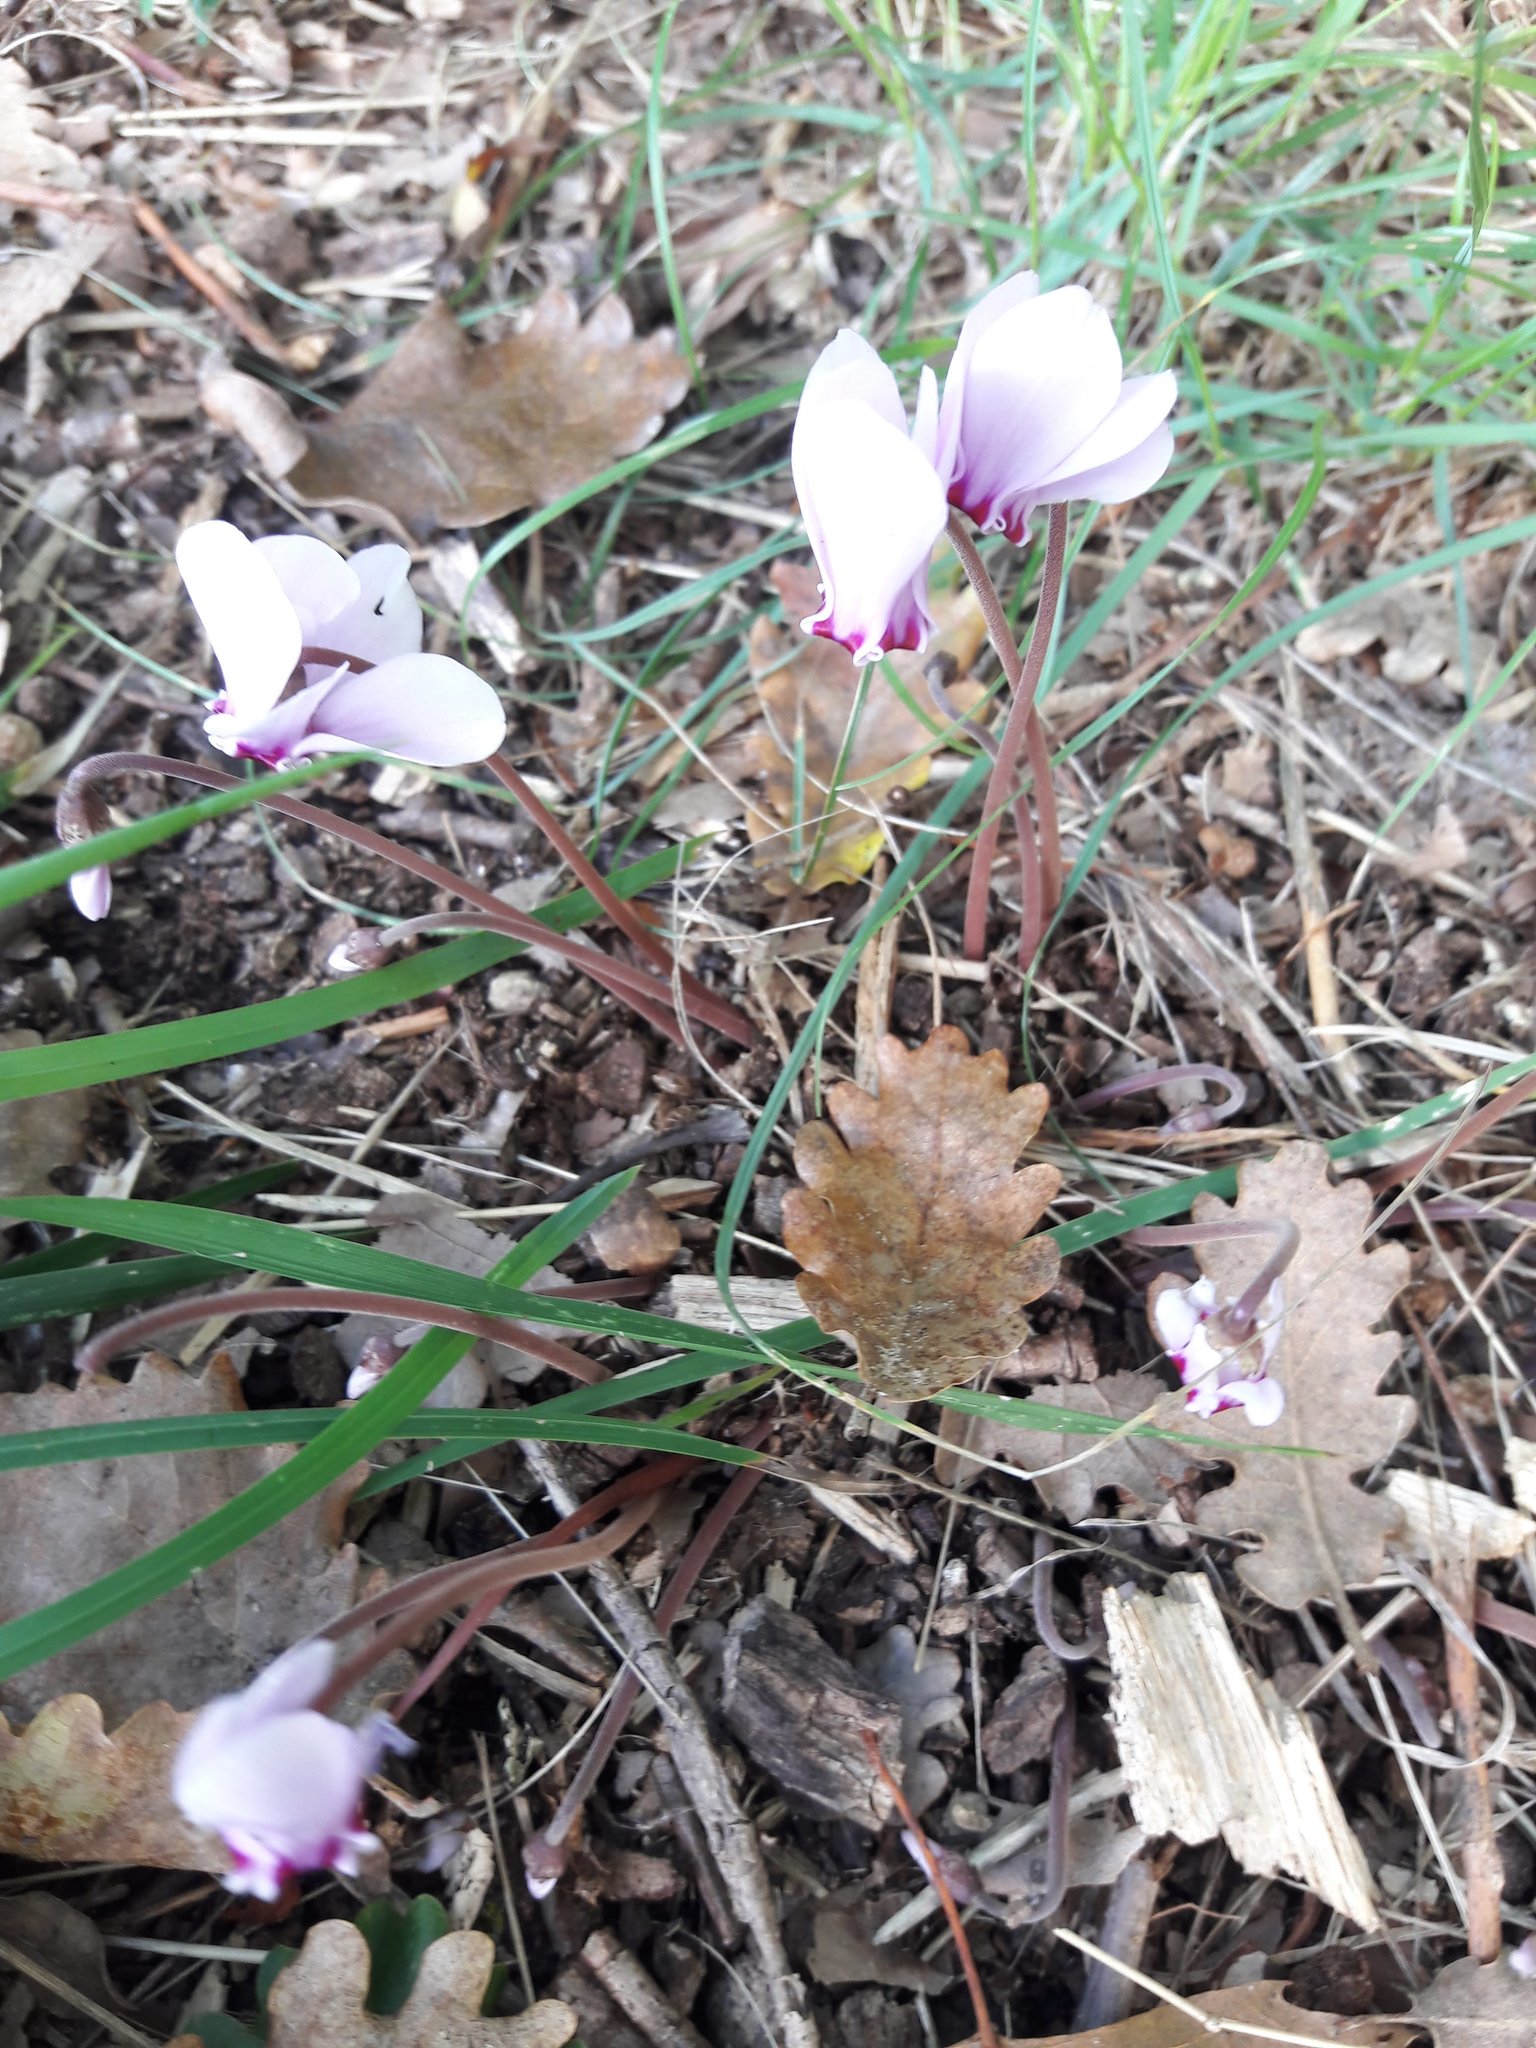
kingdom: Plantae
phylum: Tracheophyta
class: Magnoliopsida
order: Ericales
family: Primulaceae
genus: Cyclamen
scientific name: Cyclamen hederifolium
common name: Sowbread
